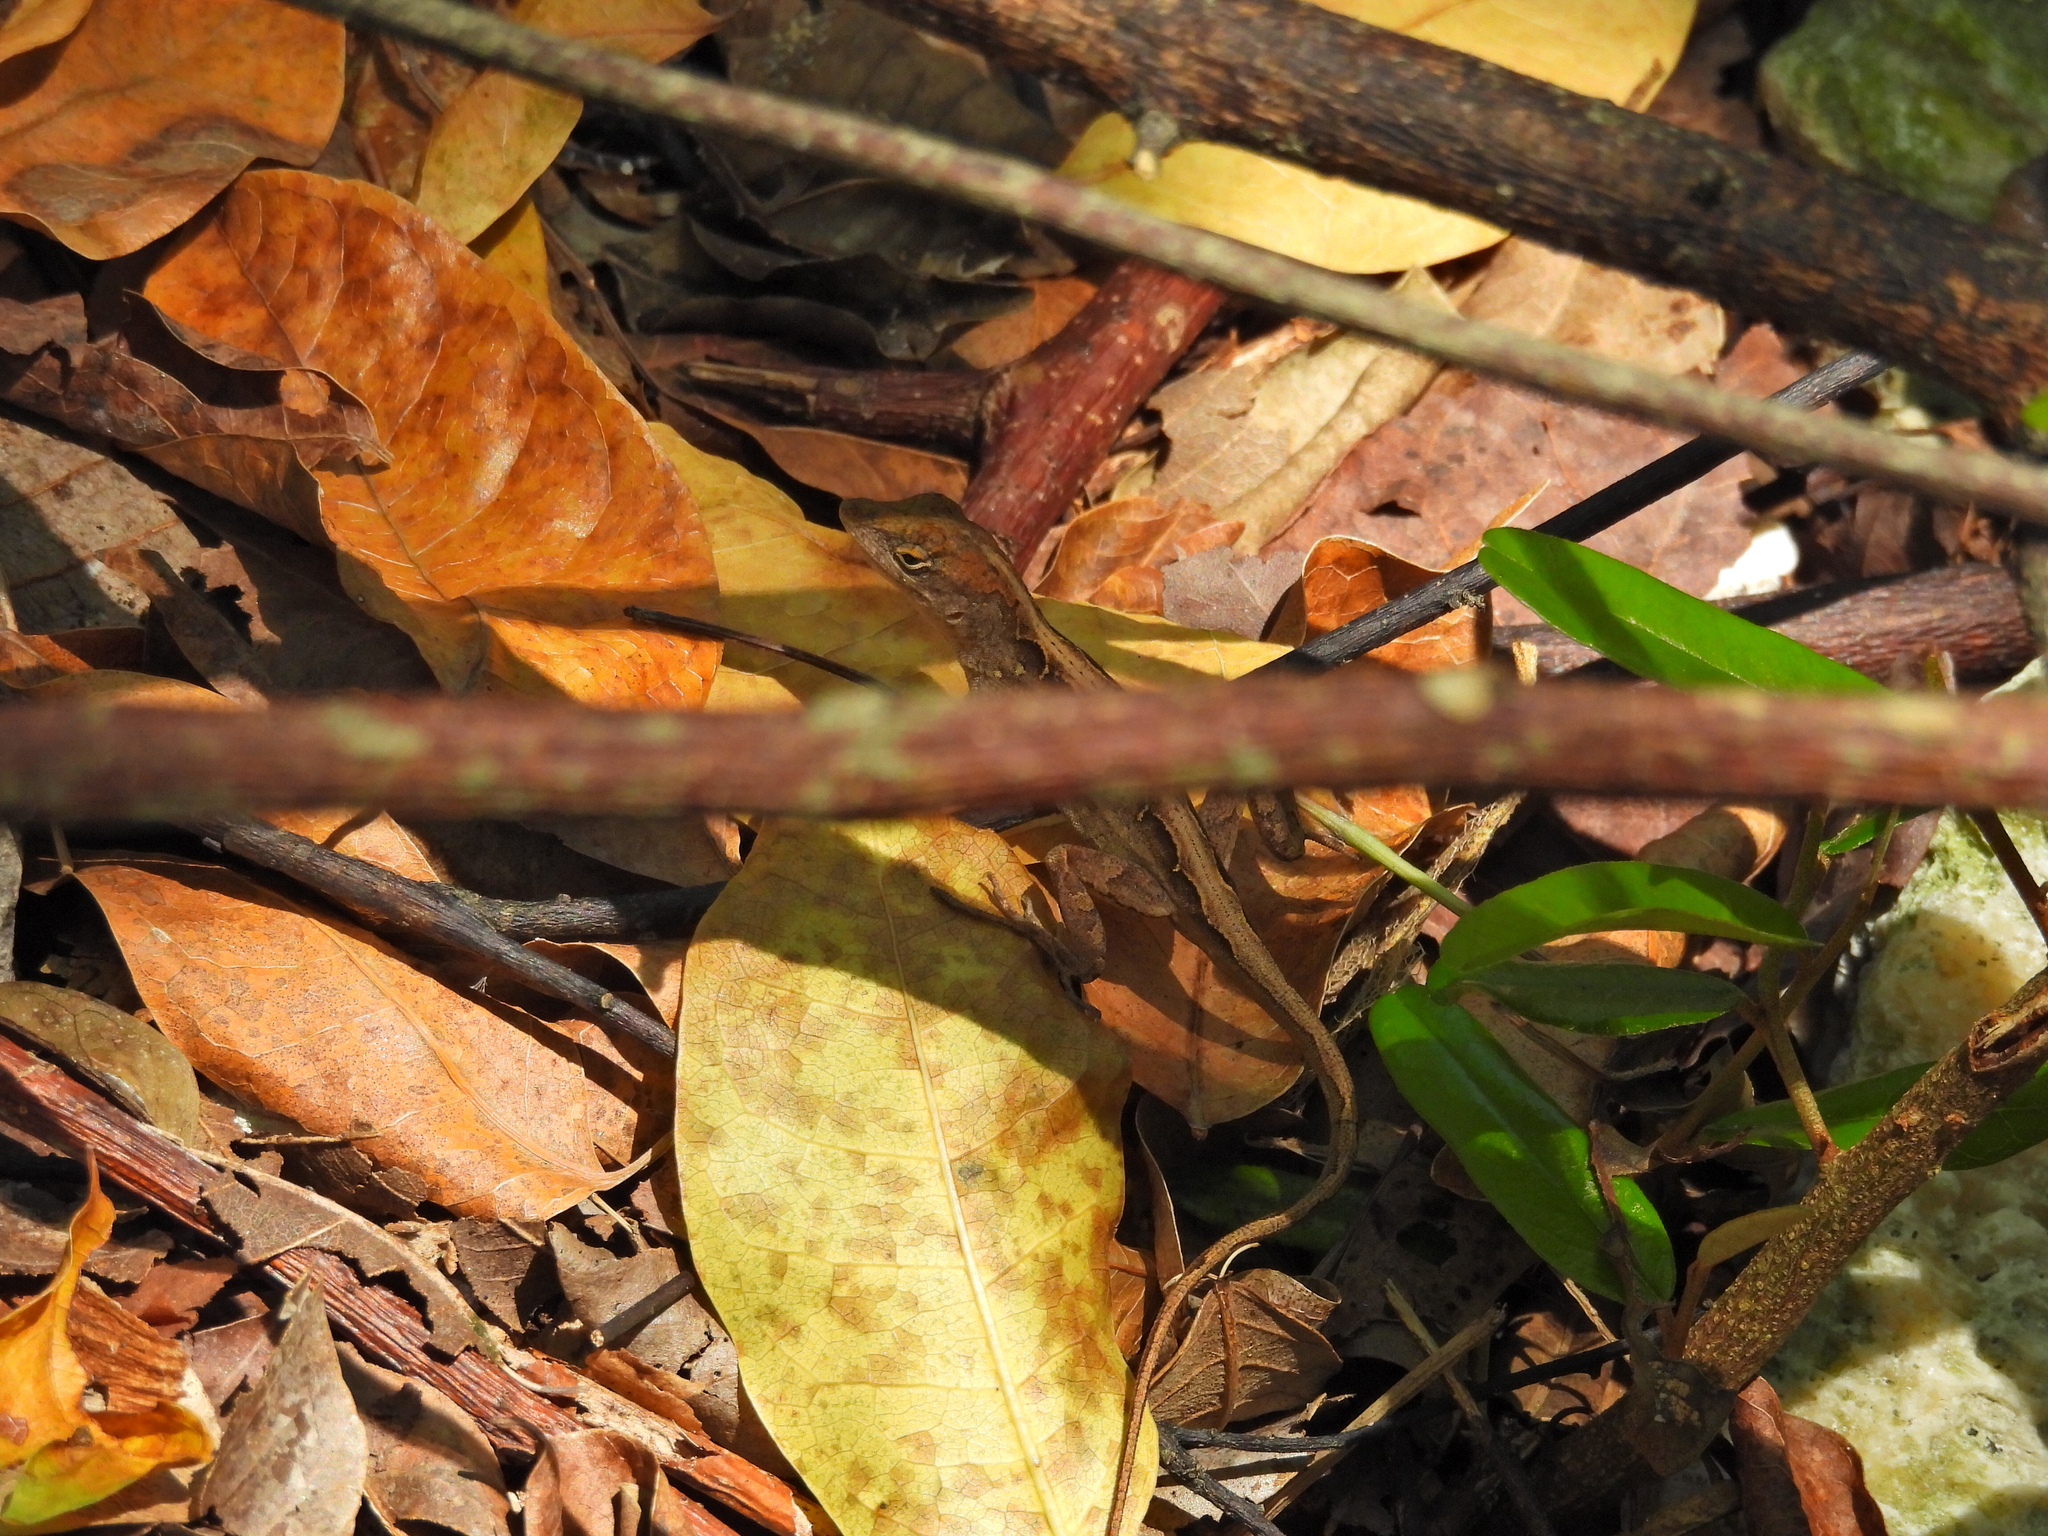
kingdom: Animalia
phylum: Chordata
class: Squamata
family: Dactyloidae
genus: Anolis
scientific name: Anolis sagrei
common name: Brown anole
